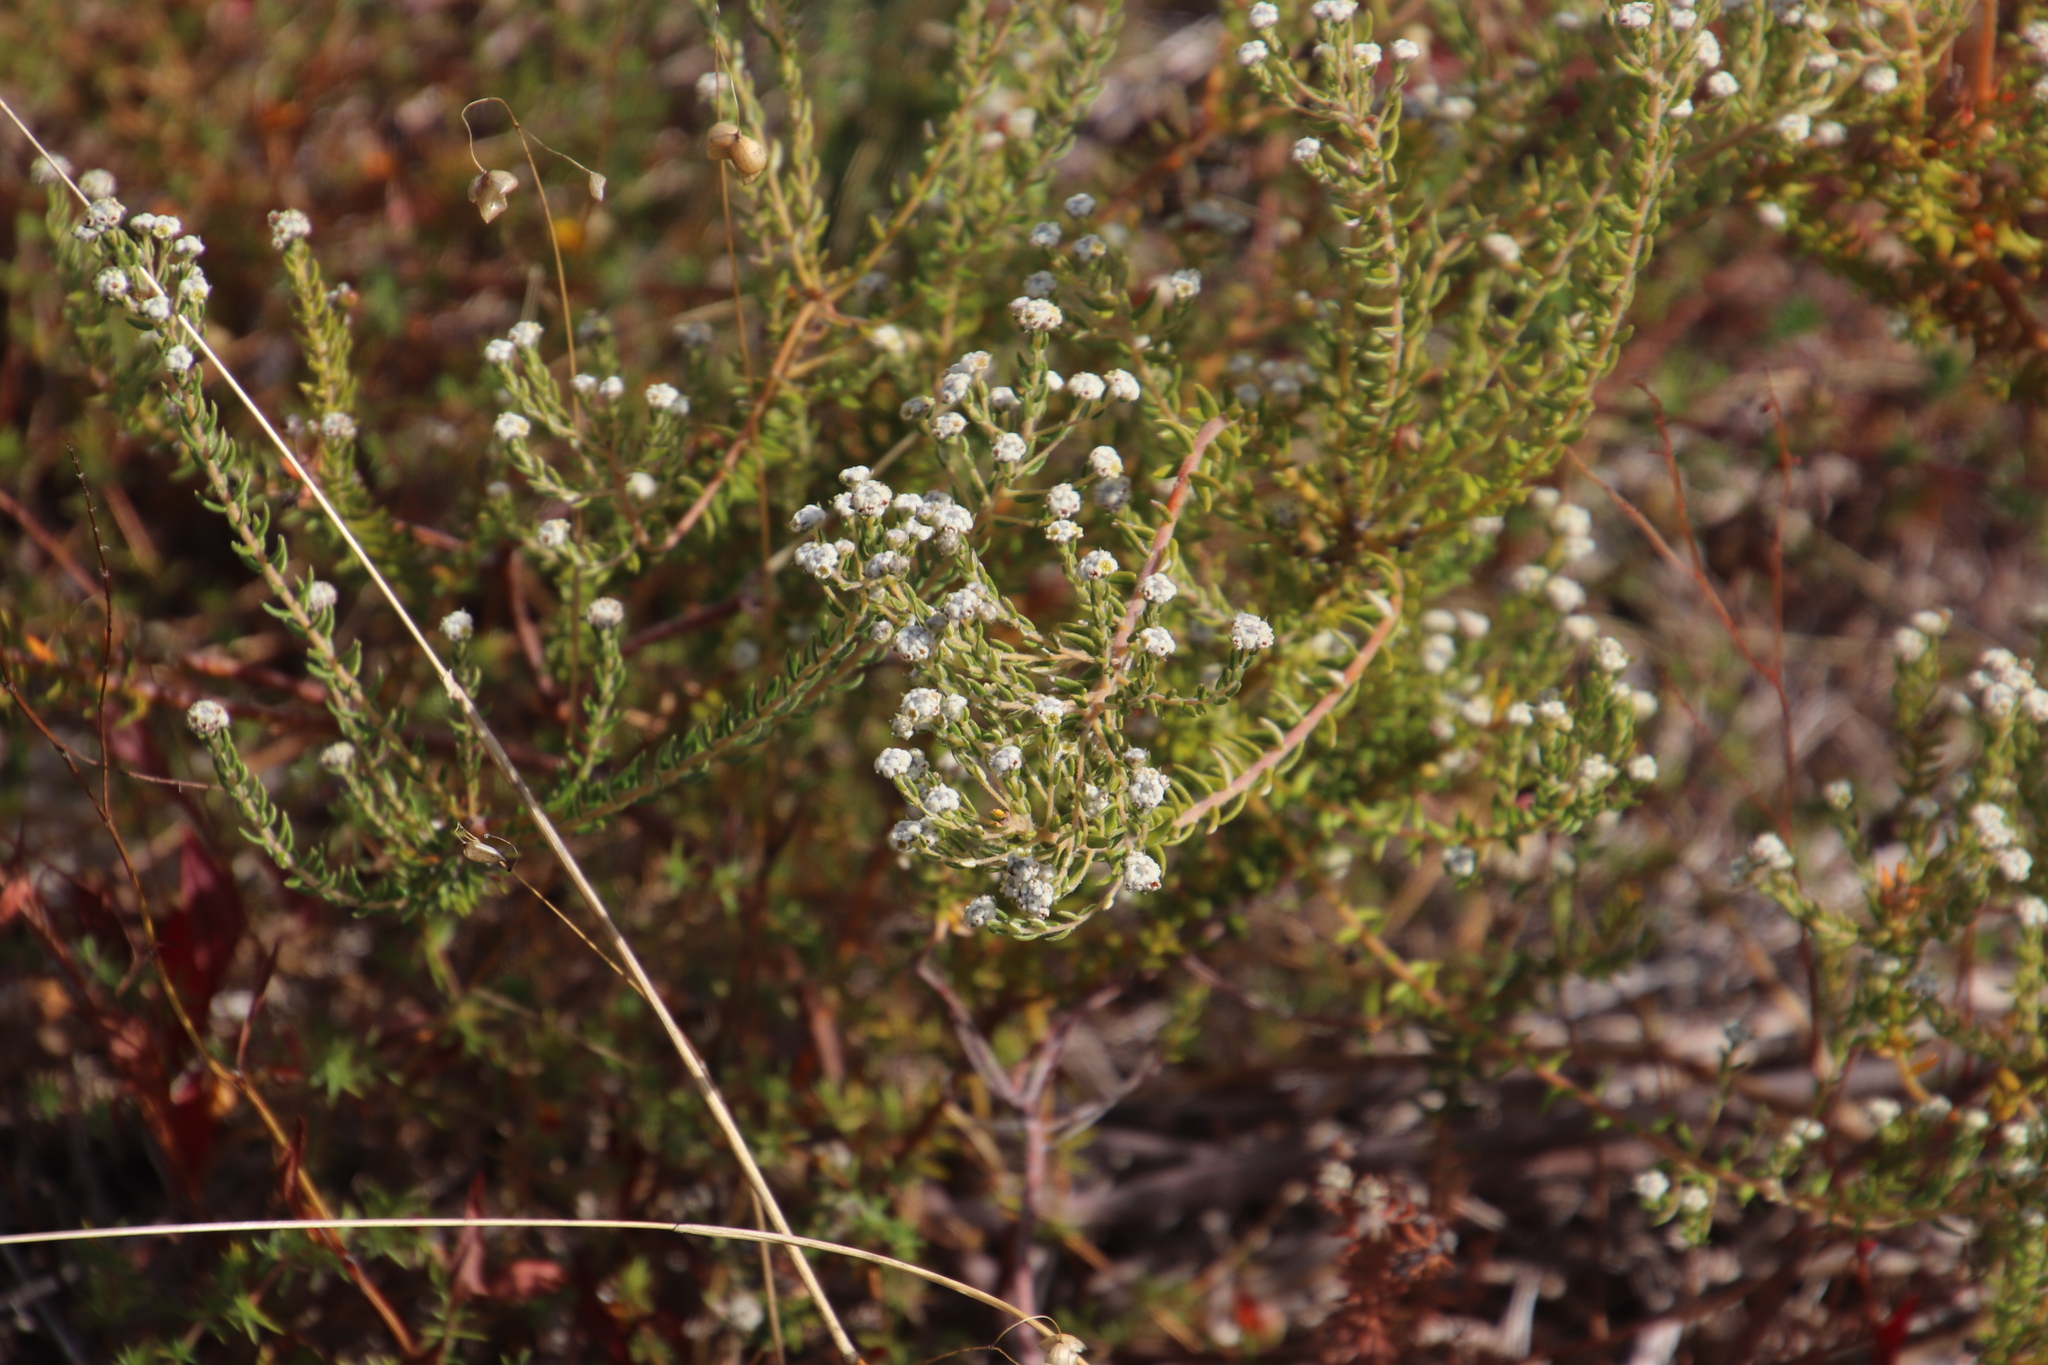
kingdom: Plantae
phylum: Tracheophyta
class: Magnoliopsida
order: Rosales
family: Rhamnaceae
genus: Phylica
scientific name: Phylica parviflora
